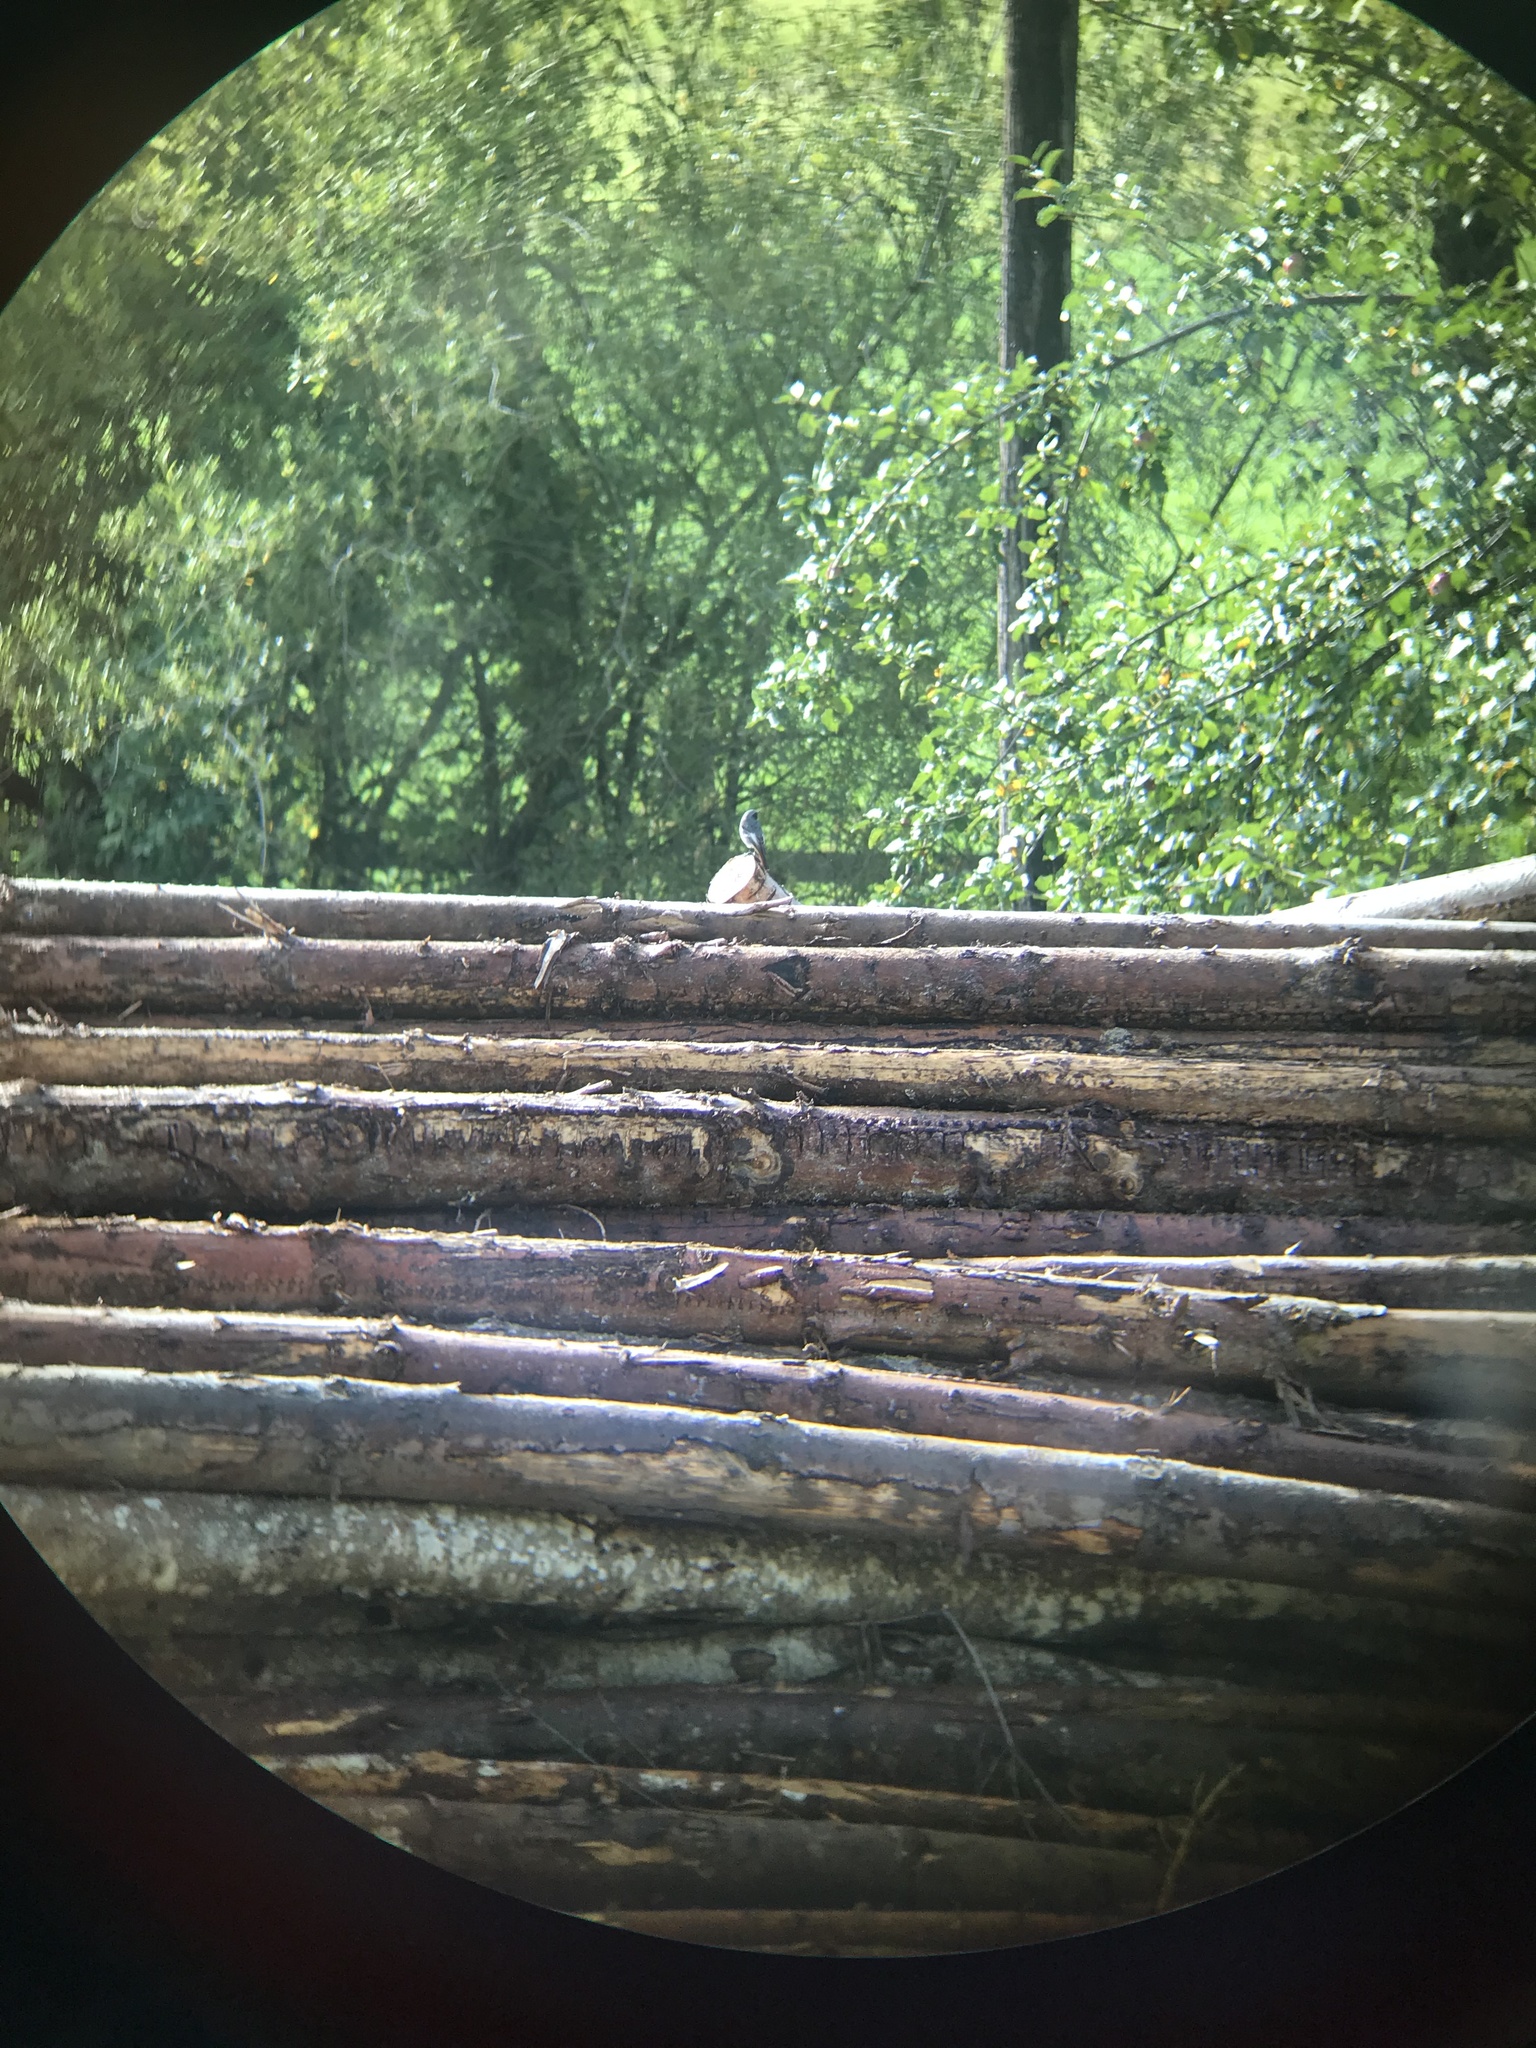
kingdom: Animalia
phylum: Chordata
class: Aves
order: Passeriformes
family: Muscicapidae
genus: Phoenicurus
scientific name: Phoenicurus ochruros
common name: Black redstart
